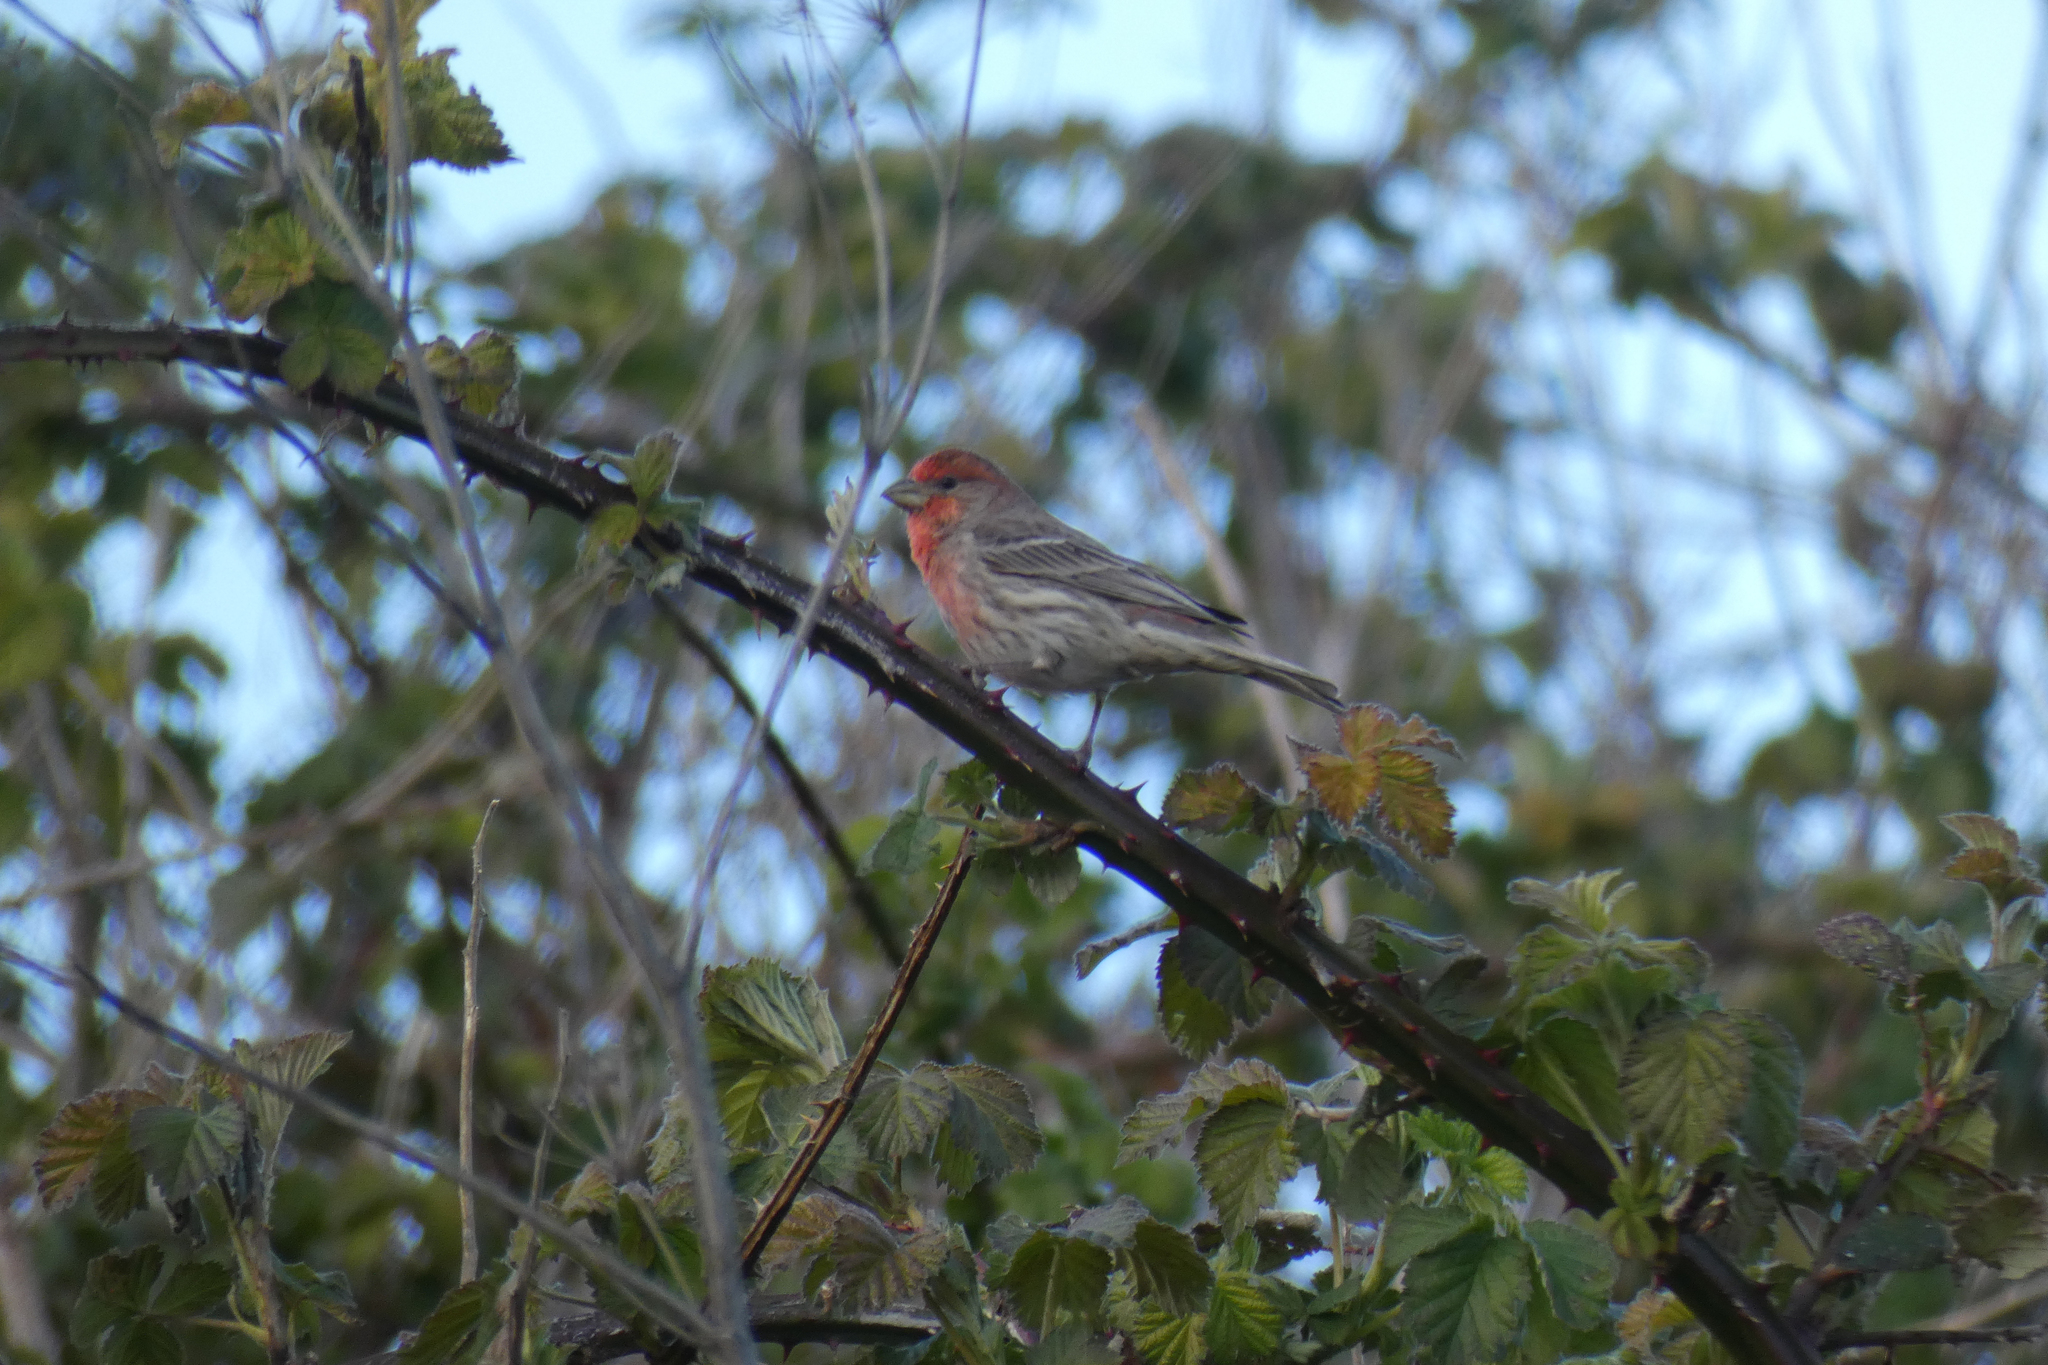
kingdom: Animalia
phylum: Chordata
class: Aves
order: Passeriformes
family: Fringillidae
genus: Haemorhous
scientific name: Haemorhous mexicanus
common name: House finch
